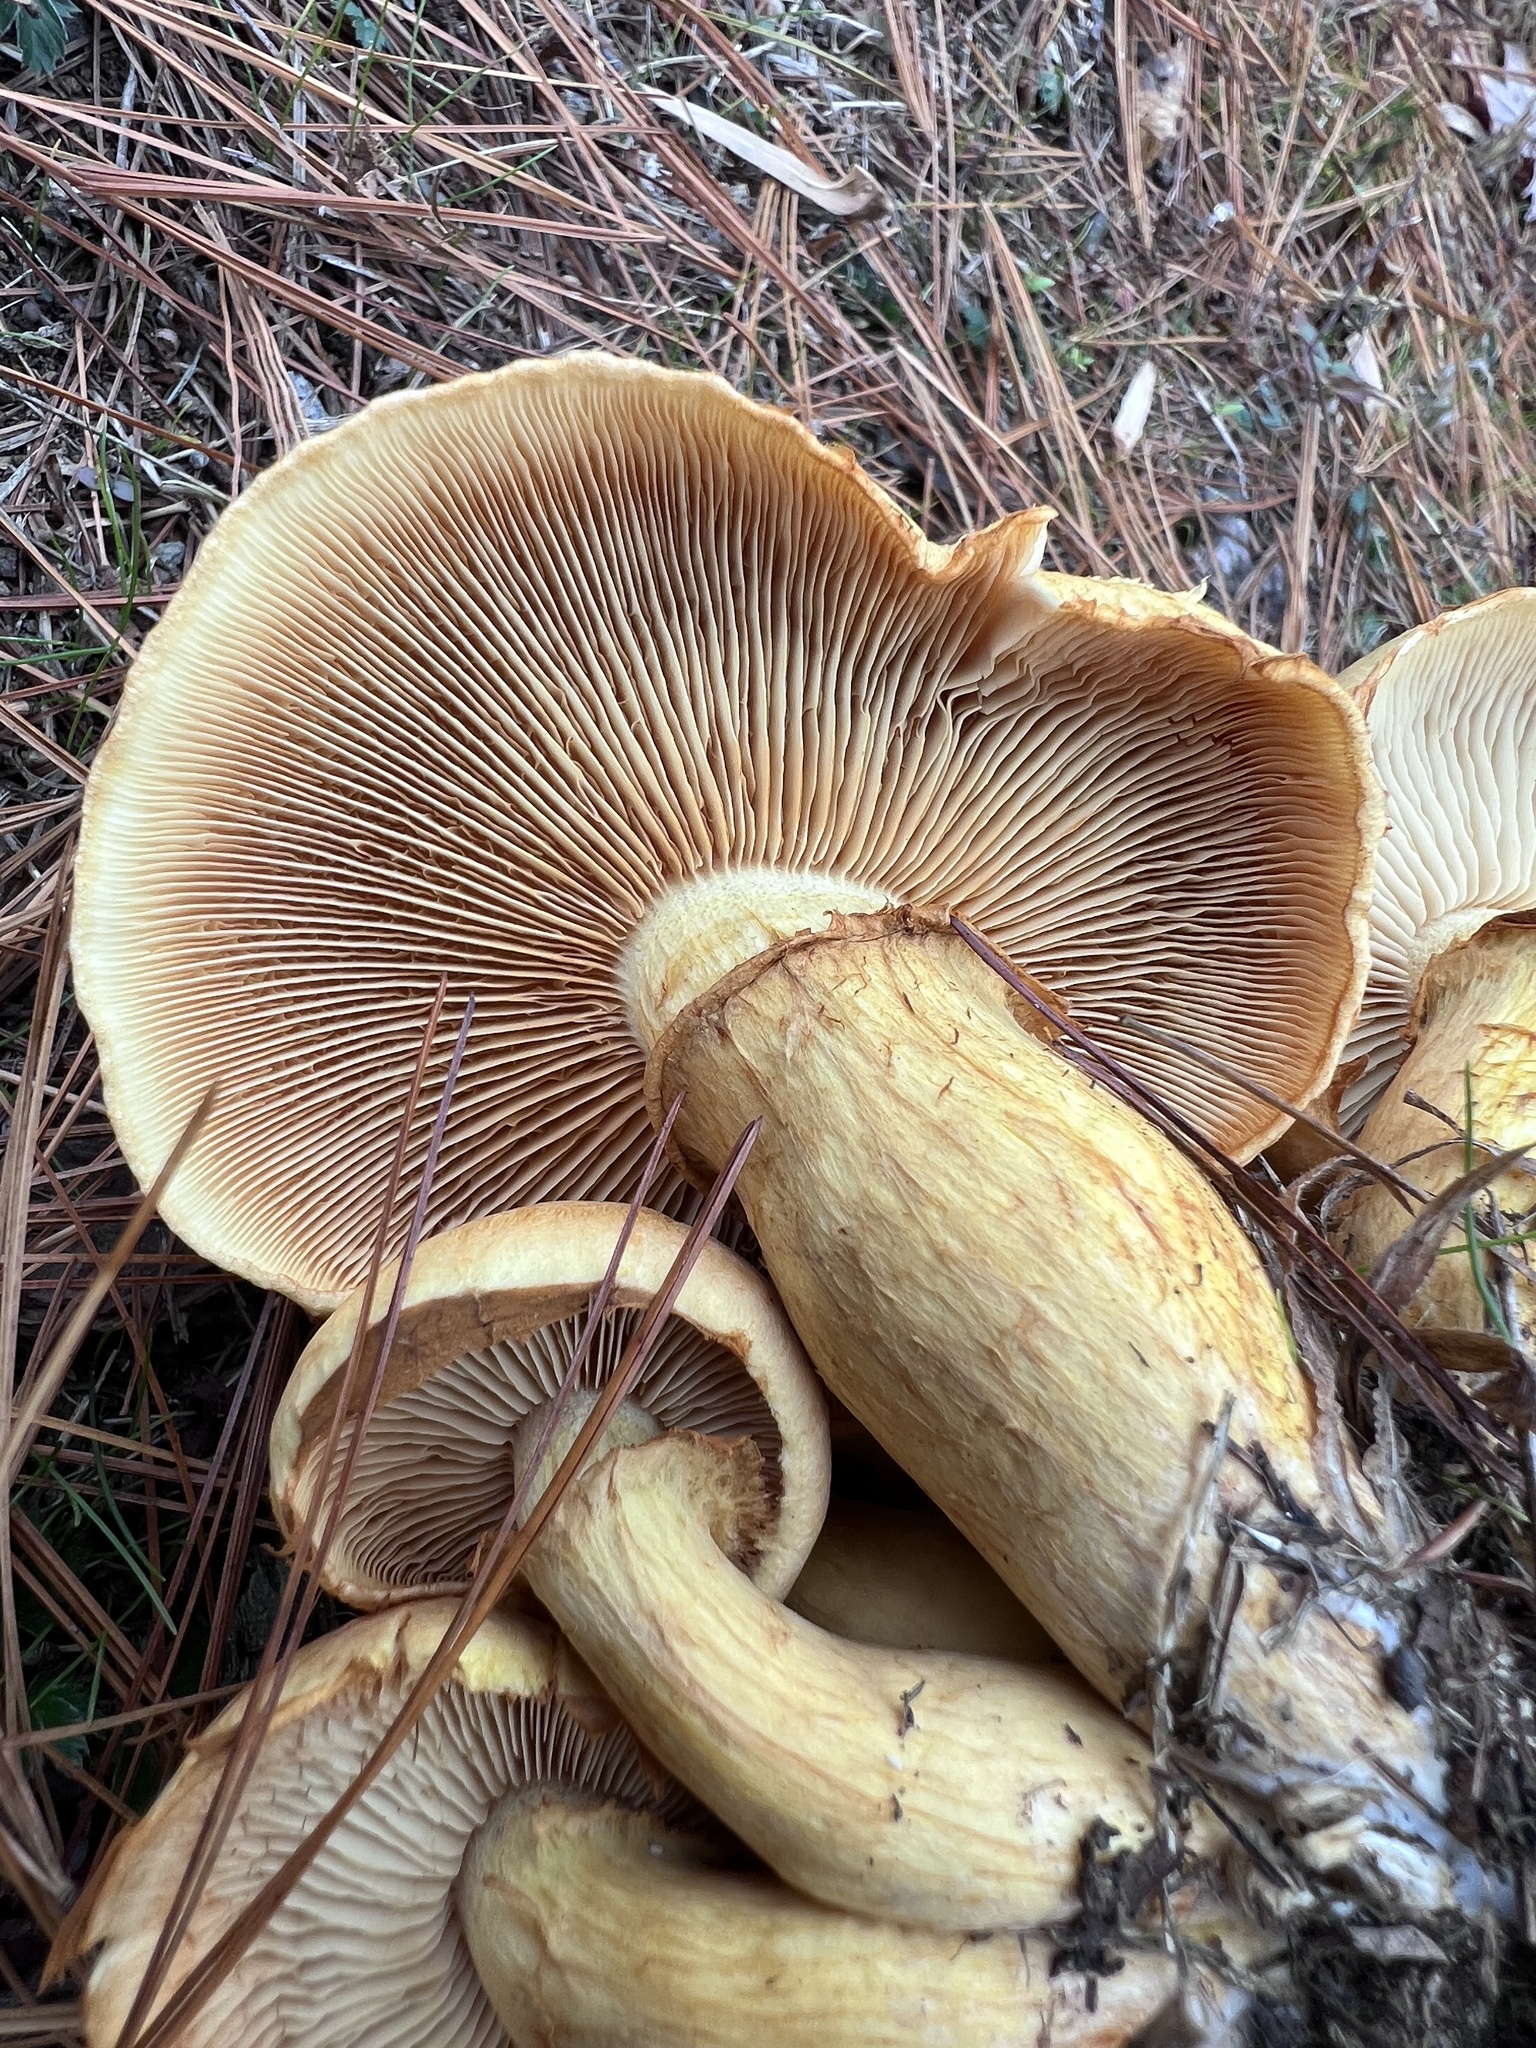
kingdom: Fungi
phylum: Basidiomycota
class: Agaricomycetes
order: Agaricales
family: Hymenogastraceae
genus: Gymnopilus
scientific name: Gymnopilus subspectabilis
